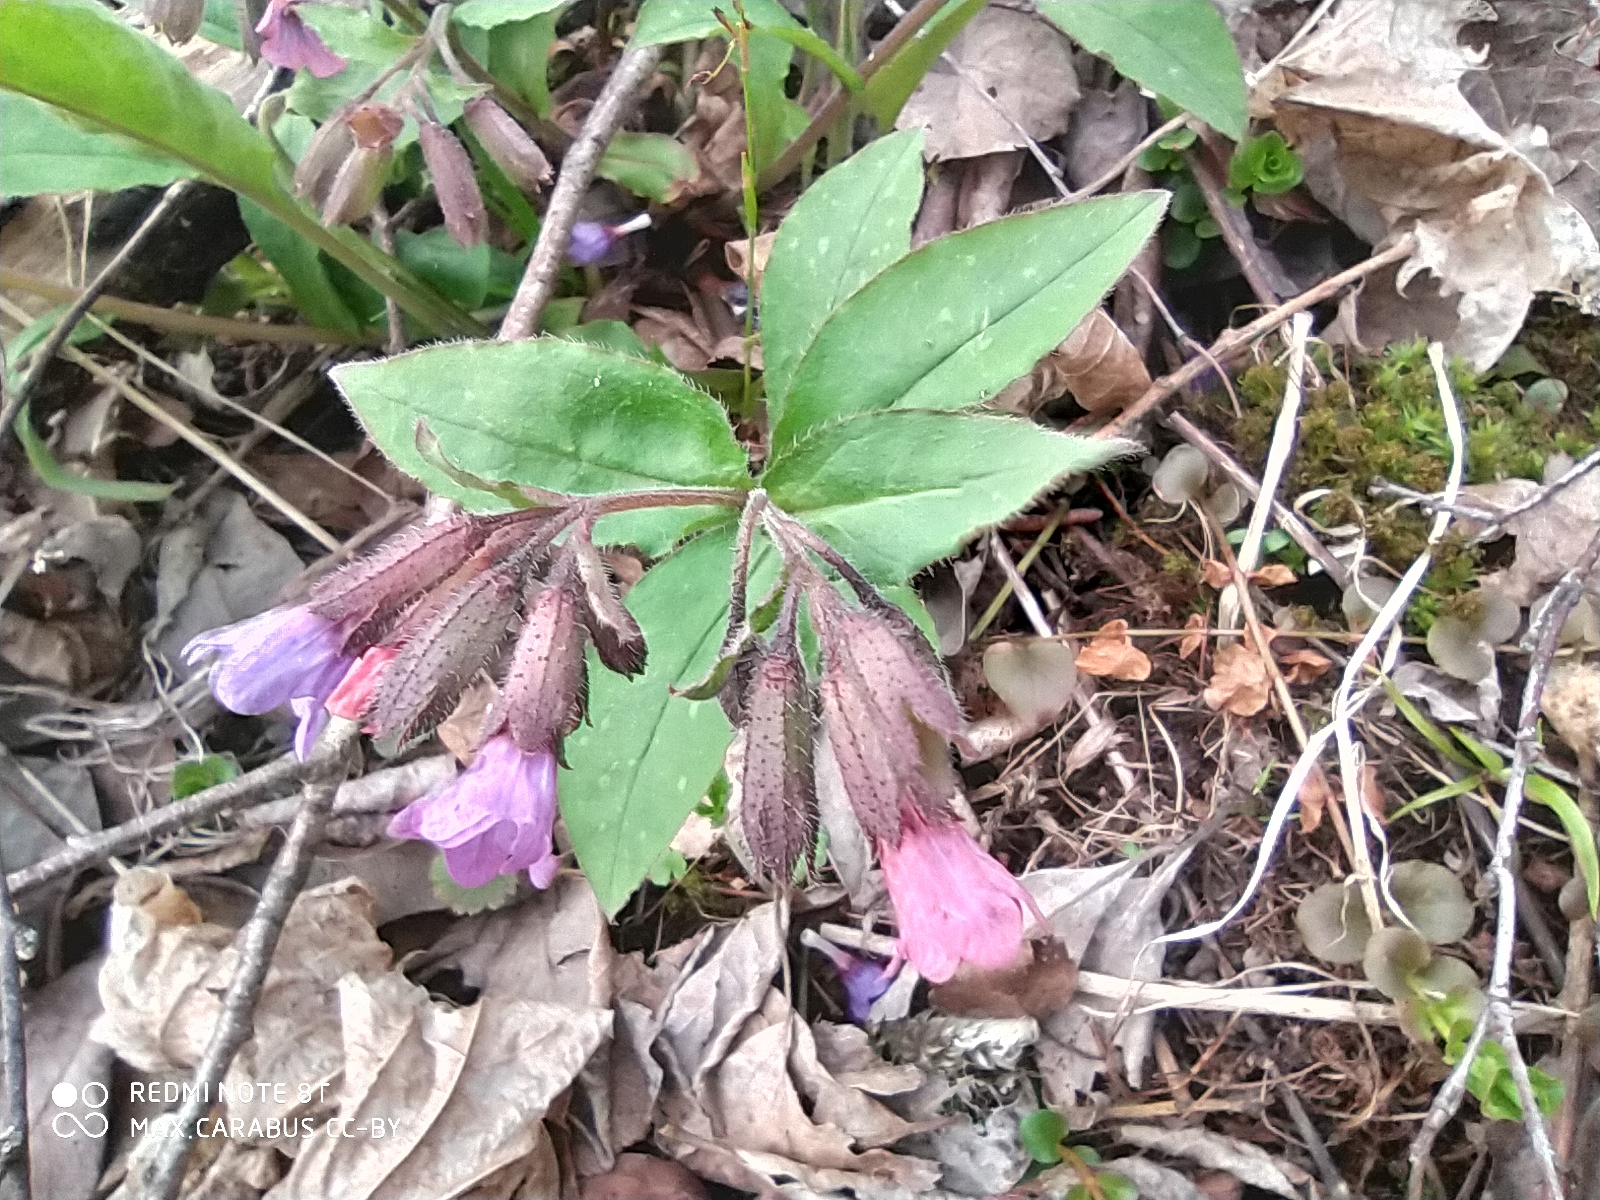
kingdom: Plantae
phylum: Tracheophyta
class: Magnoliopsida
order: Boraginales
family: Boraginaceae
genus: Pulmonaria
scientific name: Pulmonaria obscura
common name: Suffolk lungwort
